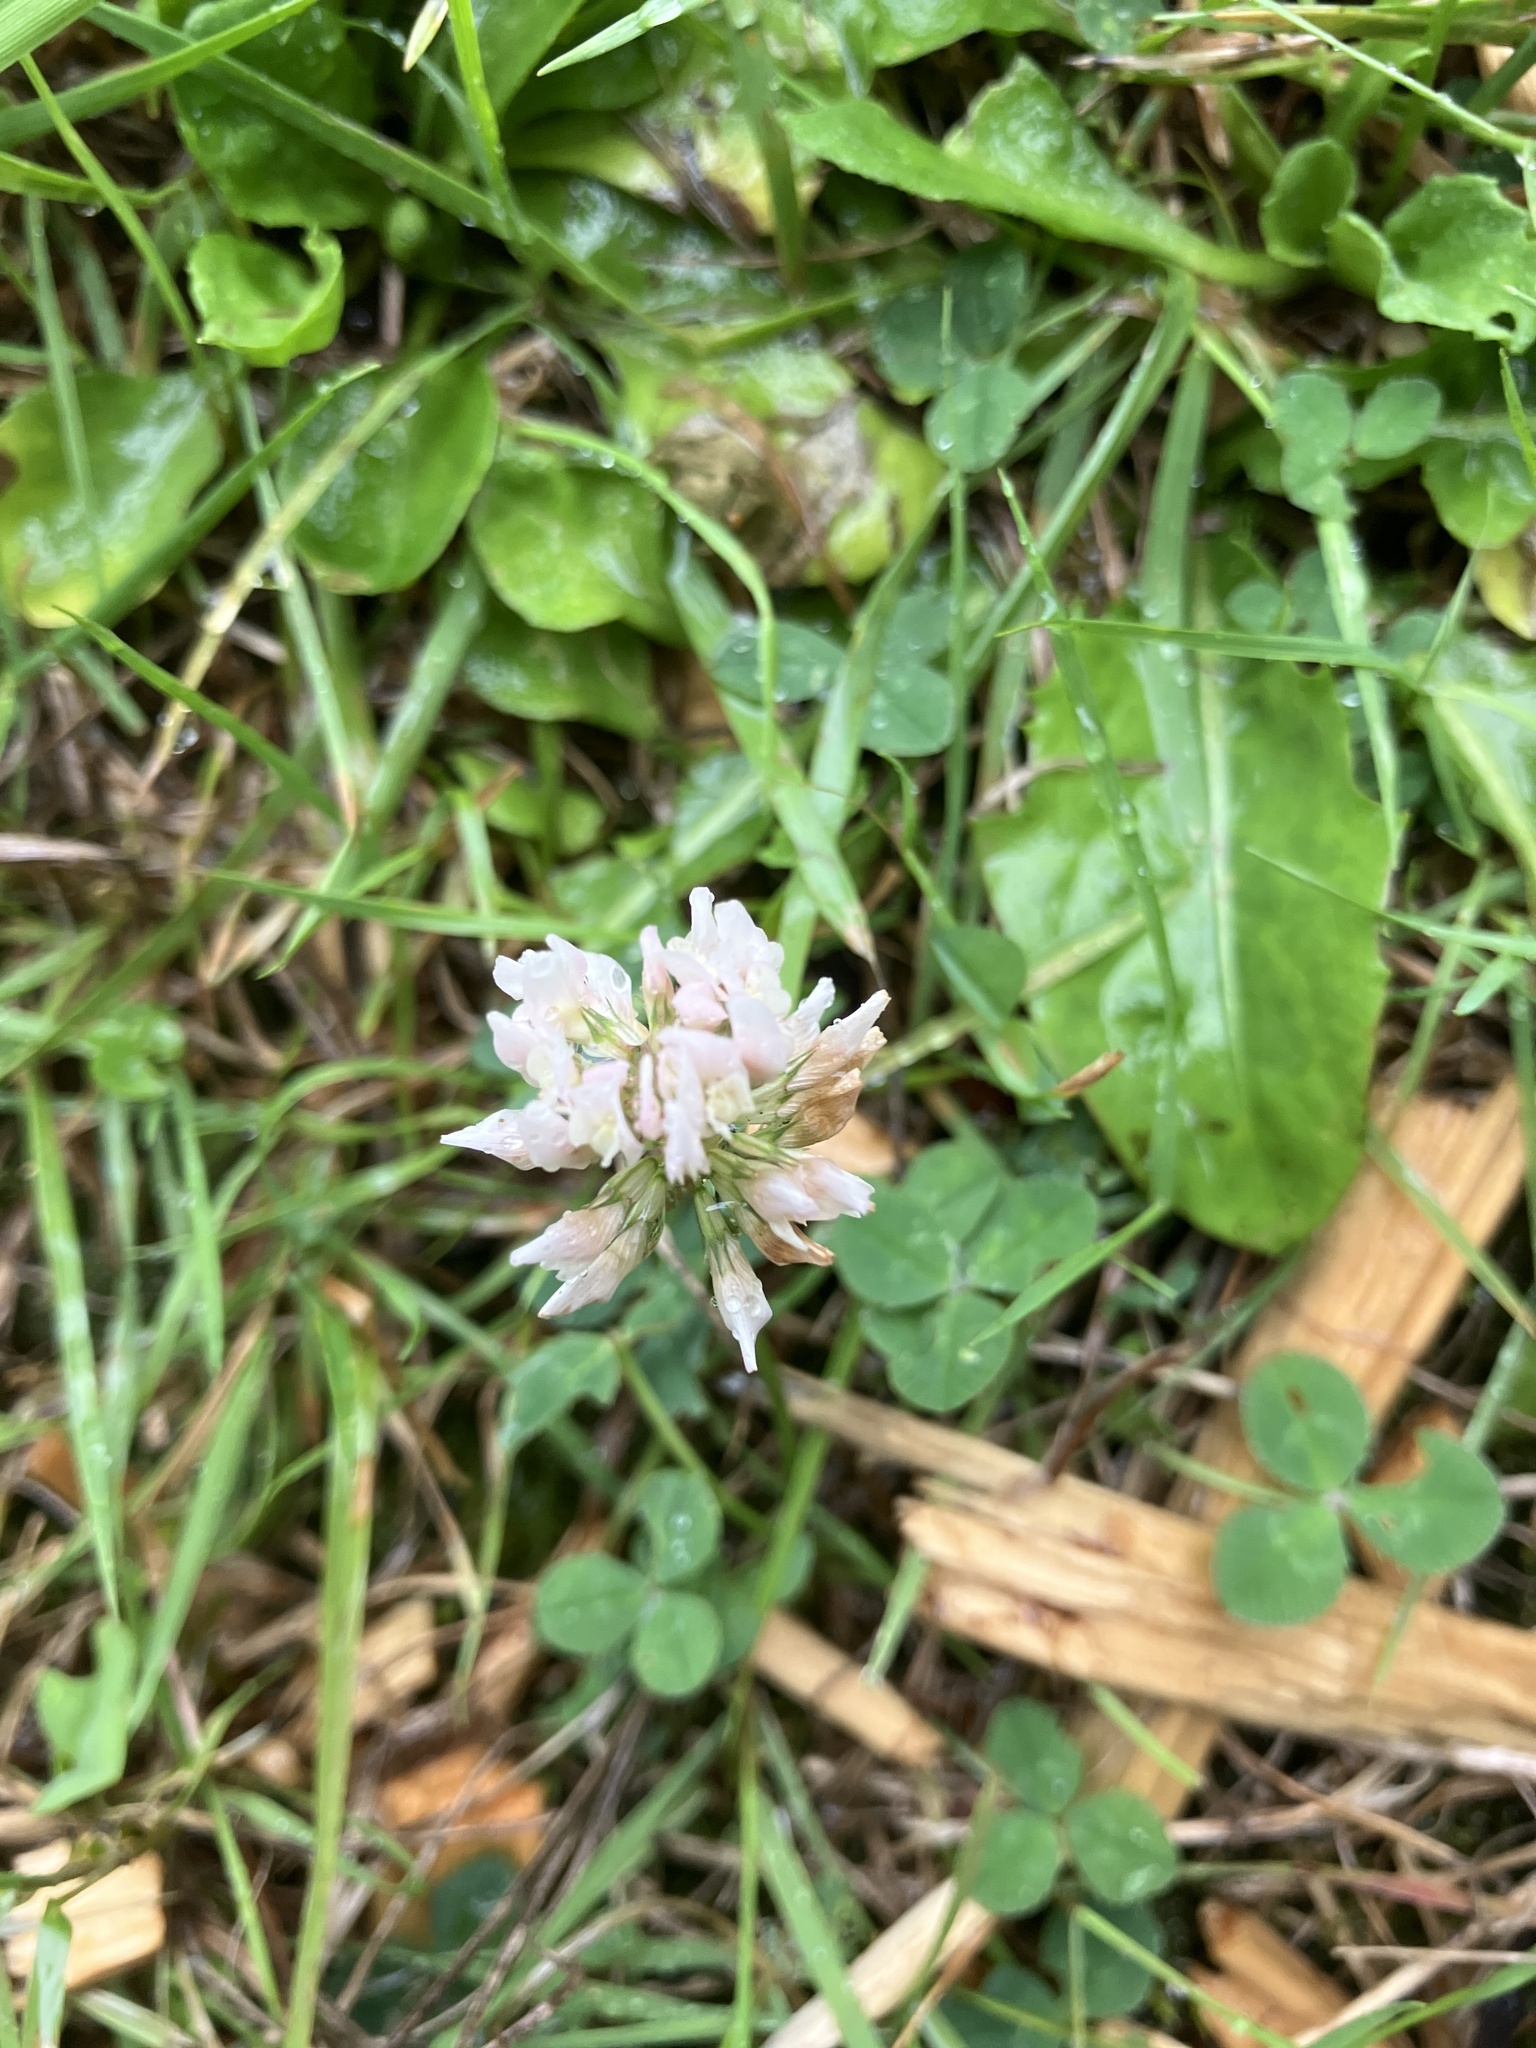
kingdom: Plantae
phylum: Tracheophyta
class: Magnoliopsida
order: Fabales
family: Fabaceae
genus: Trifolium
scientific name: Trifolium repens
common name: White clover
